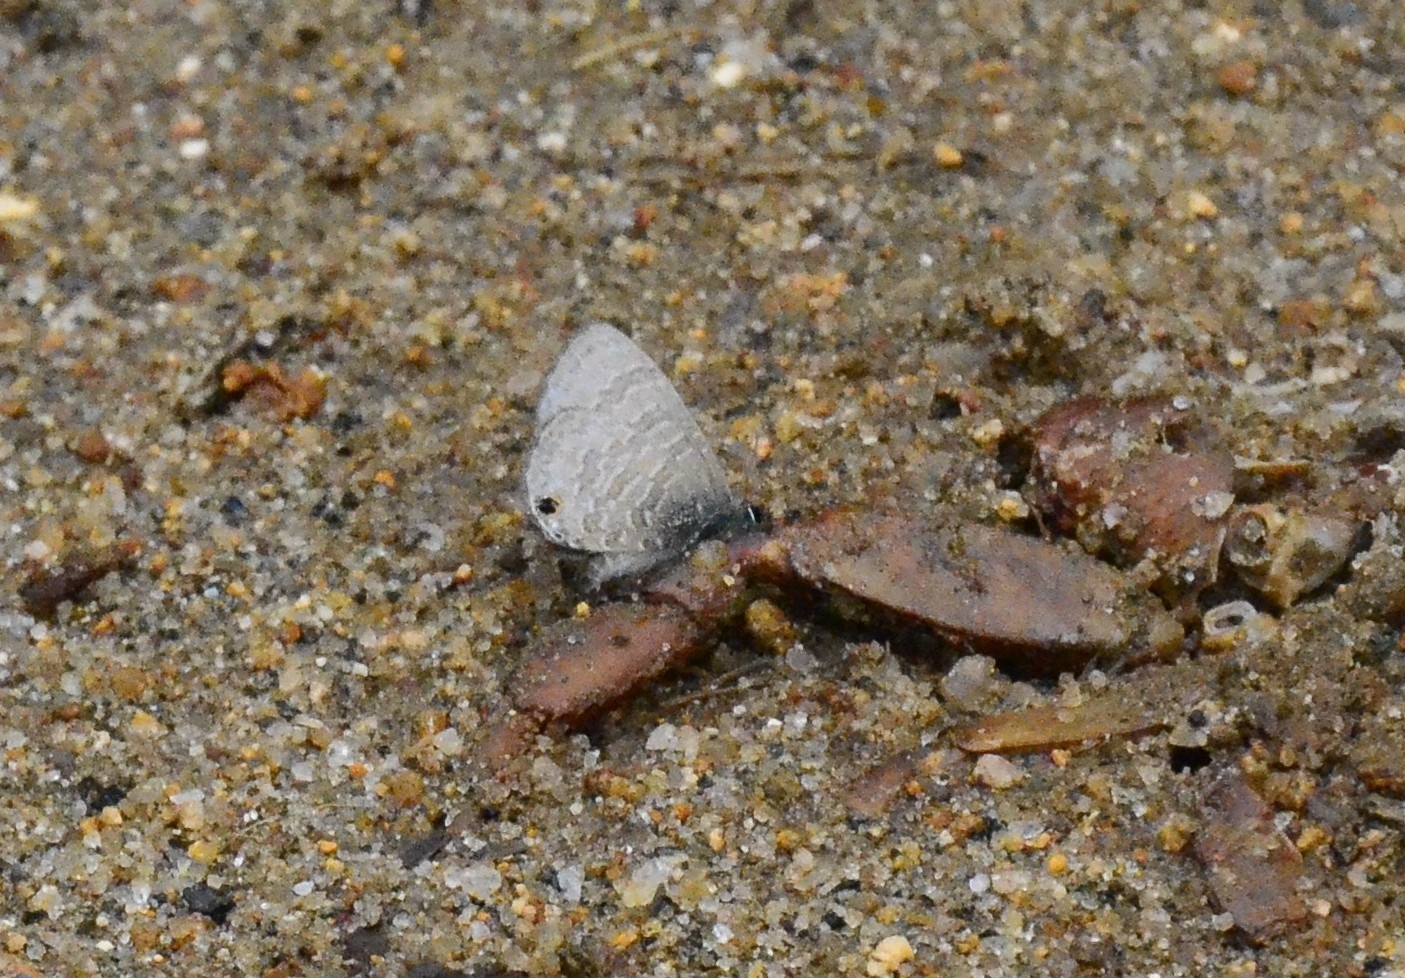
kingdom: Animalia
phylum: Arthropoda
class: Insecta
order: Lepidoptera
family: Lycaenidae
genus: Prosotas
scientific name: Prosotas nora
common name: Common line blue
